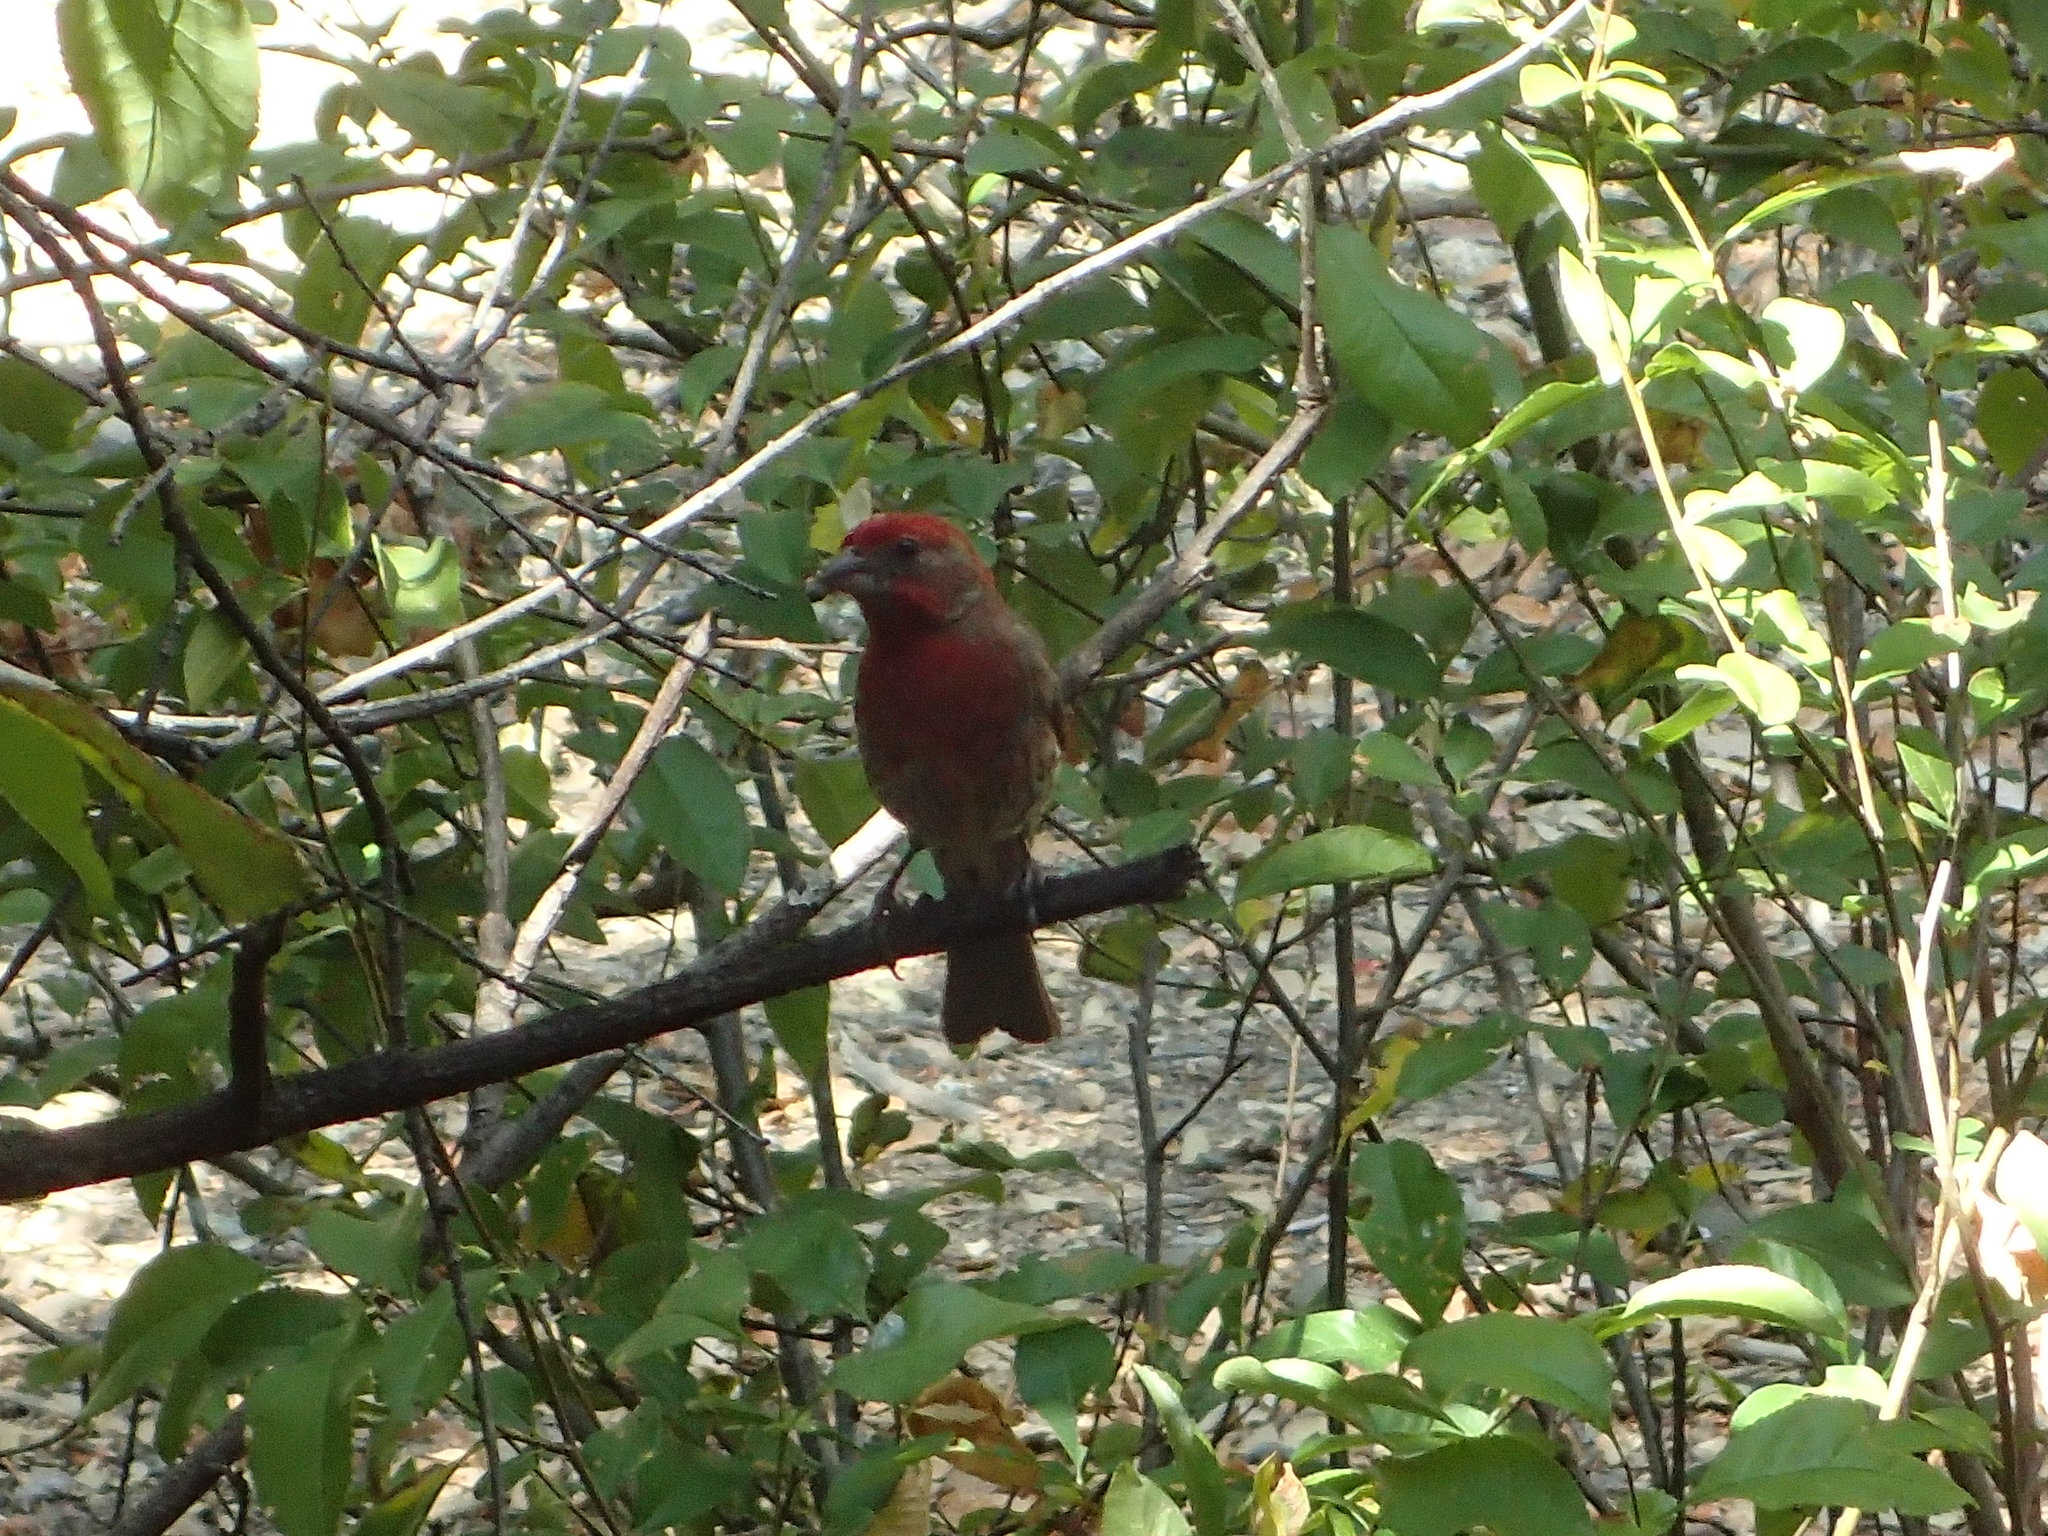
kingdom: Animalia
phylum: Chordata
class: Aves
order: Passeriformes
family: Fringillidae
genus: Haemorhous
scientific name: Haemorhous mexicanus
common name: House finch
